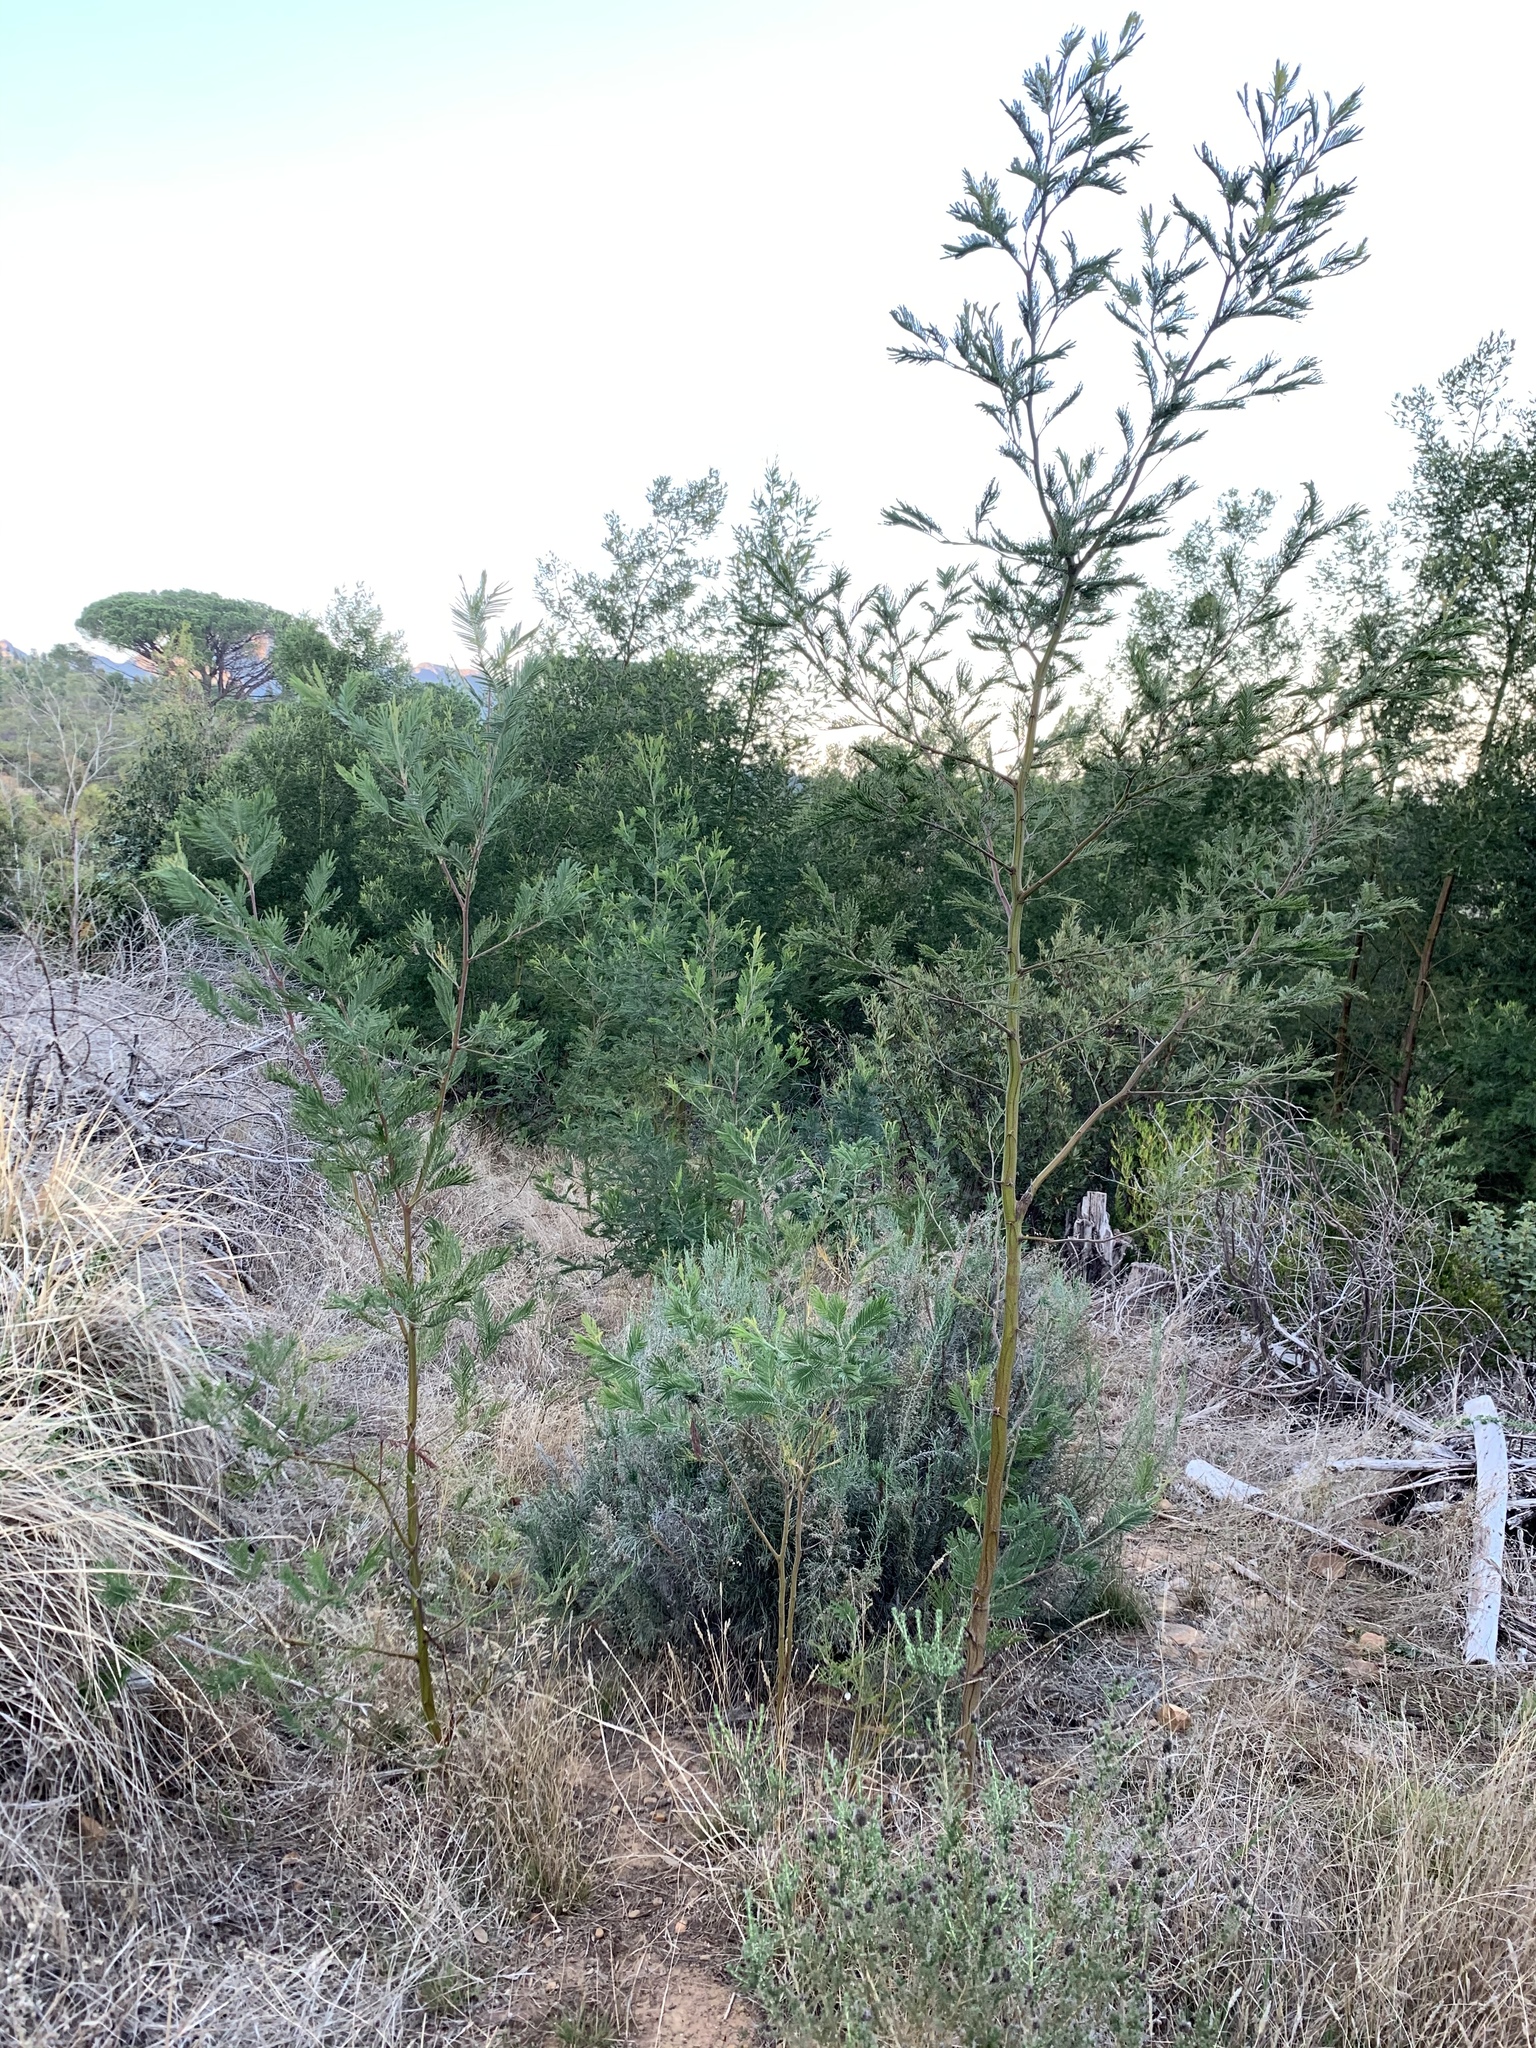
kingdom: Plantae
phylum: Tracheophyta
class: Magnoliopsida
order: Fabales
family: Fabaceae
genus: Acacia
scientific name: Acacia mearnsii
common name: Black wattle
